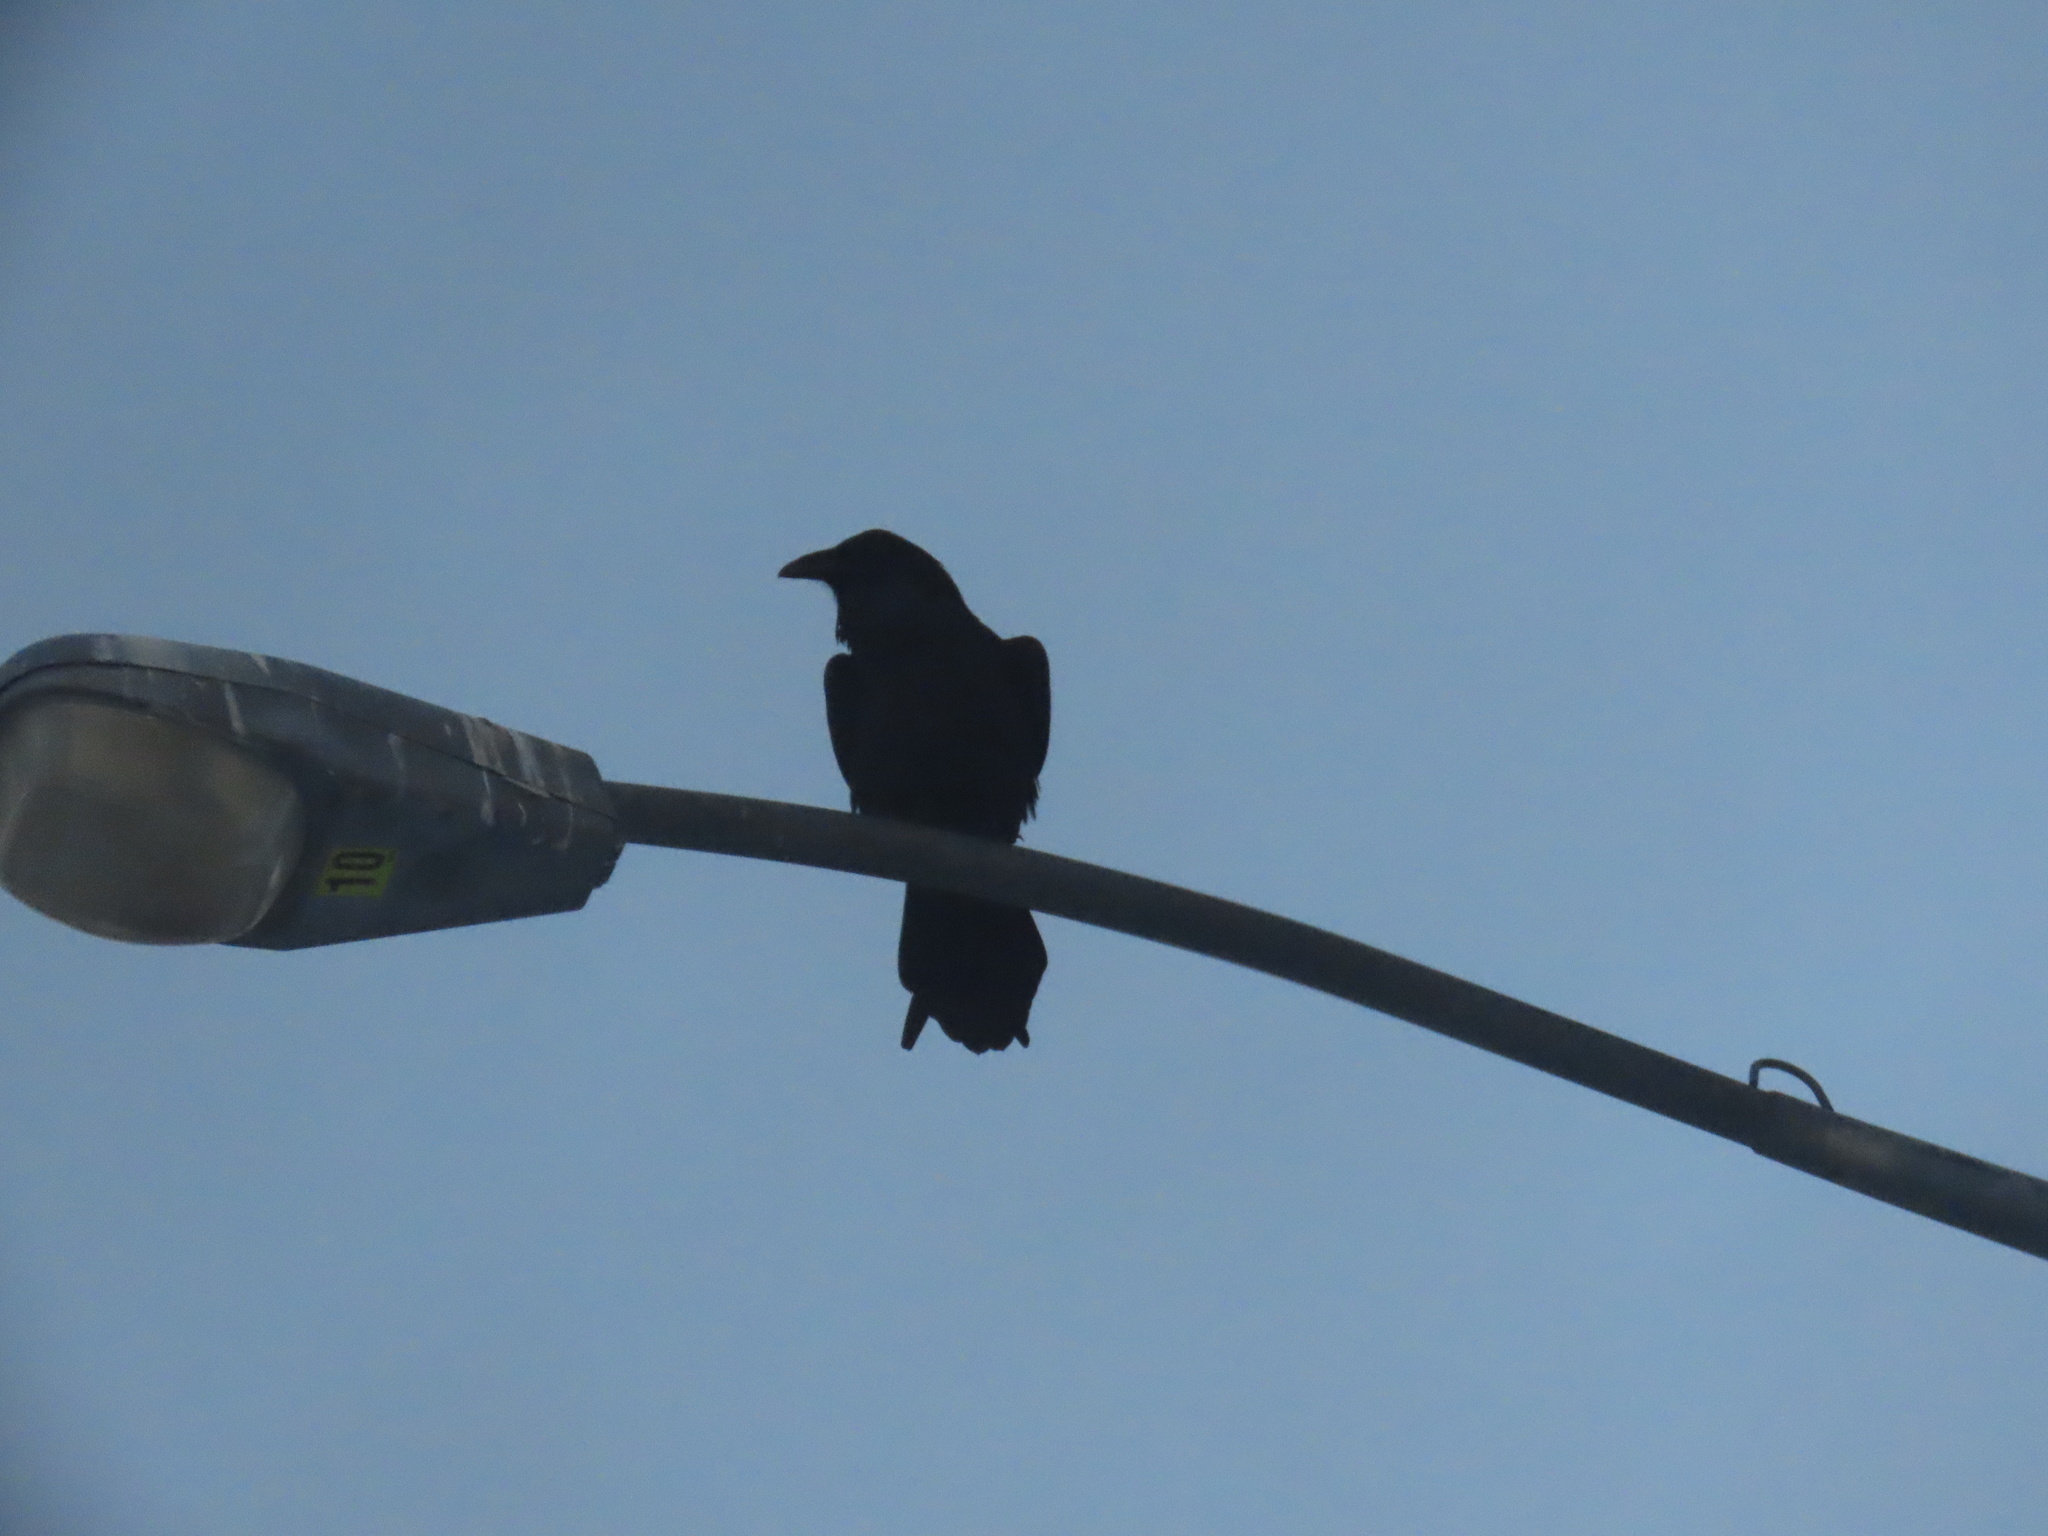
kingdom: Animalia
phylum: Chordata
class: Aves
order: Passeriformes
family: Corvidae
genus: Corvus
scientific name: Corvus corax
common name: Common raven
